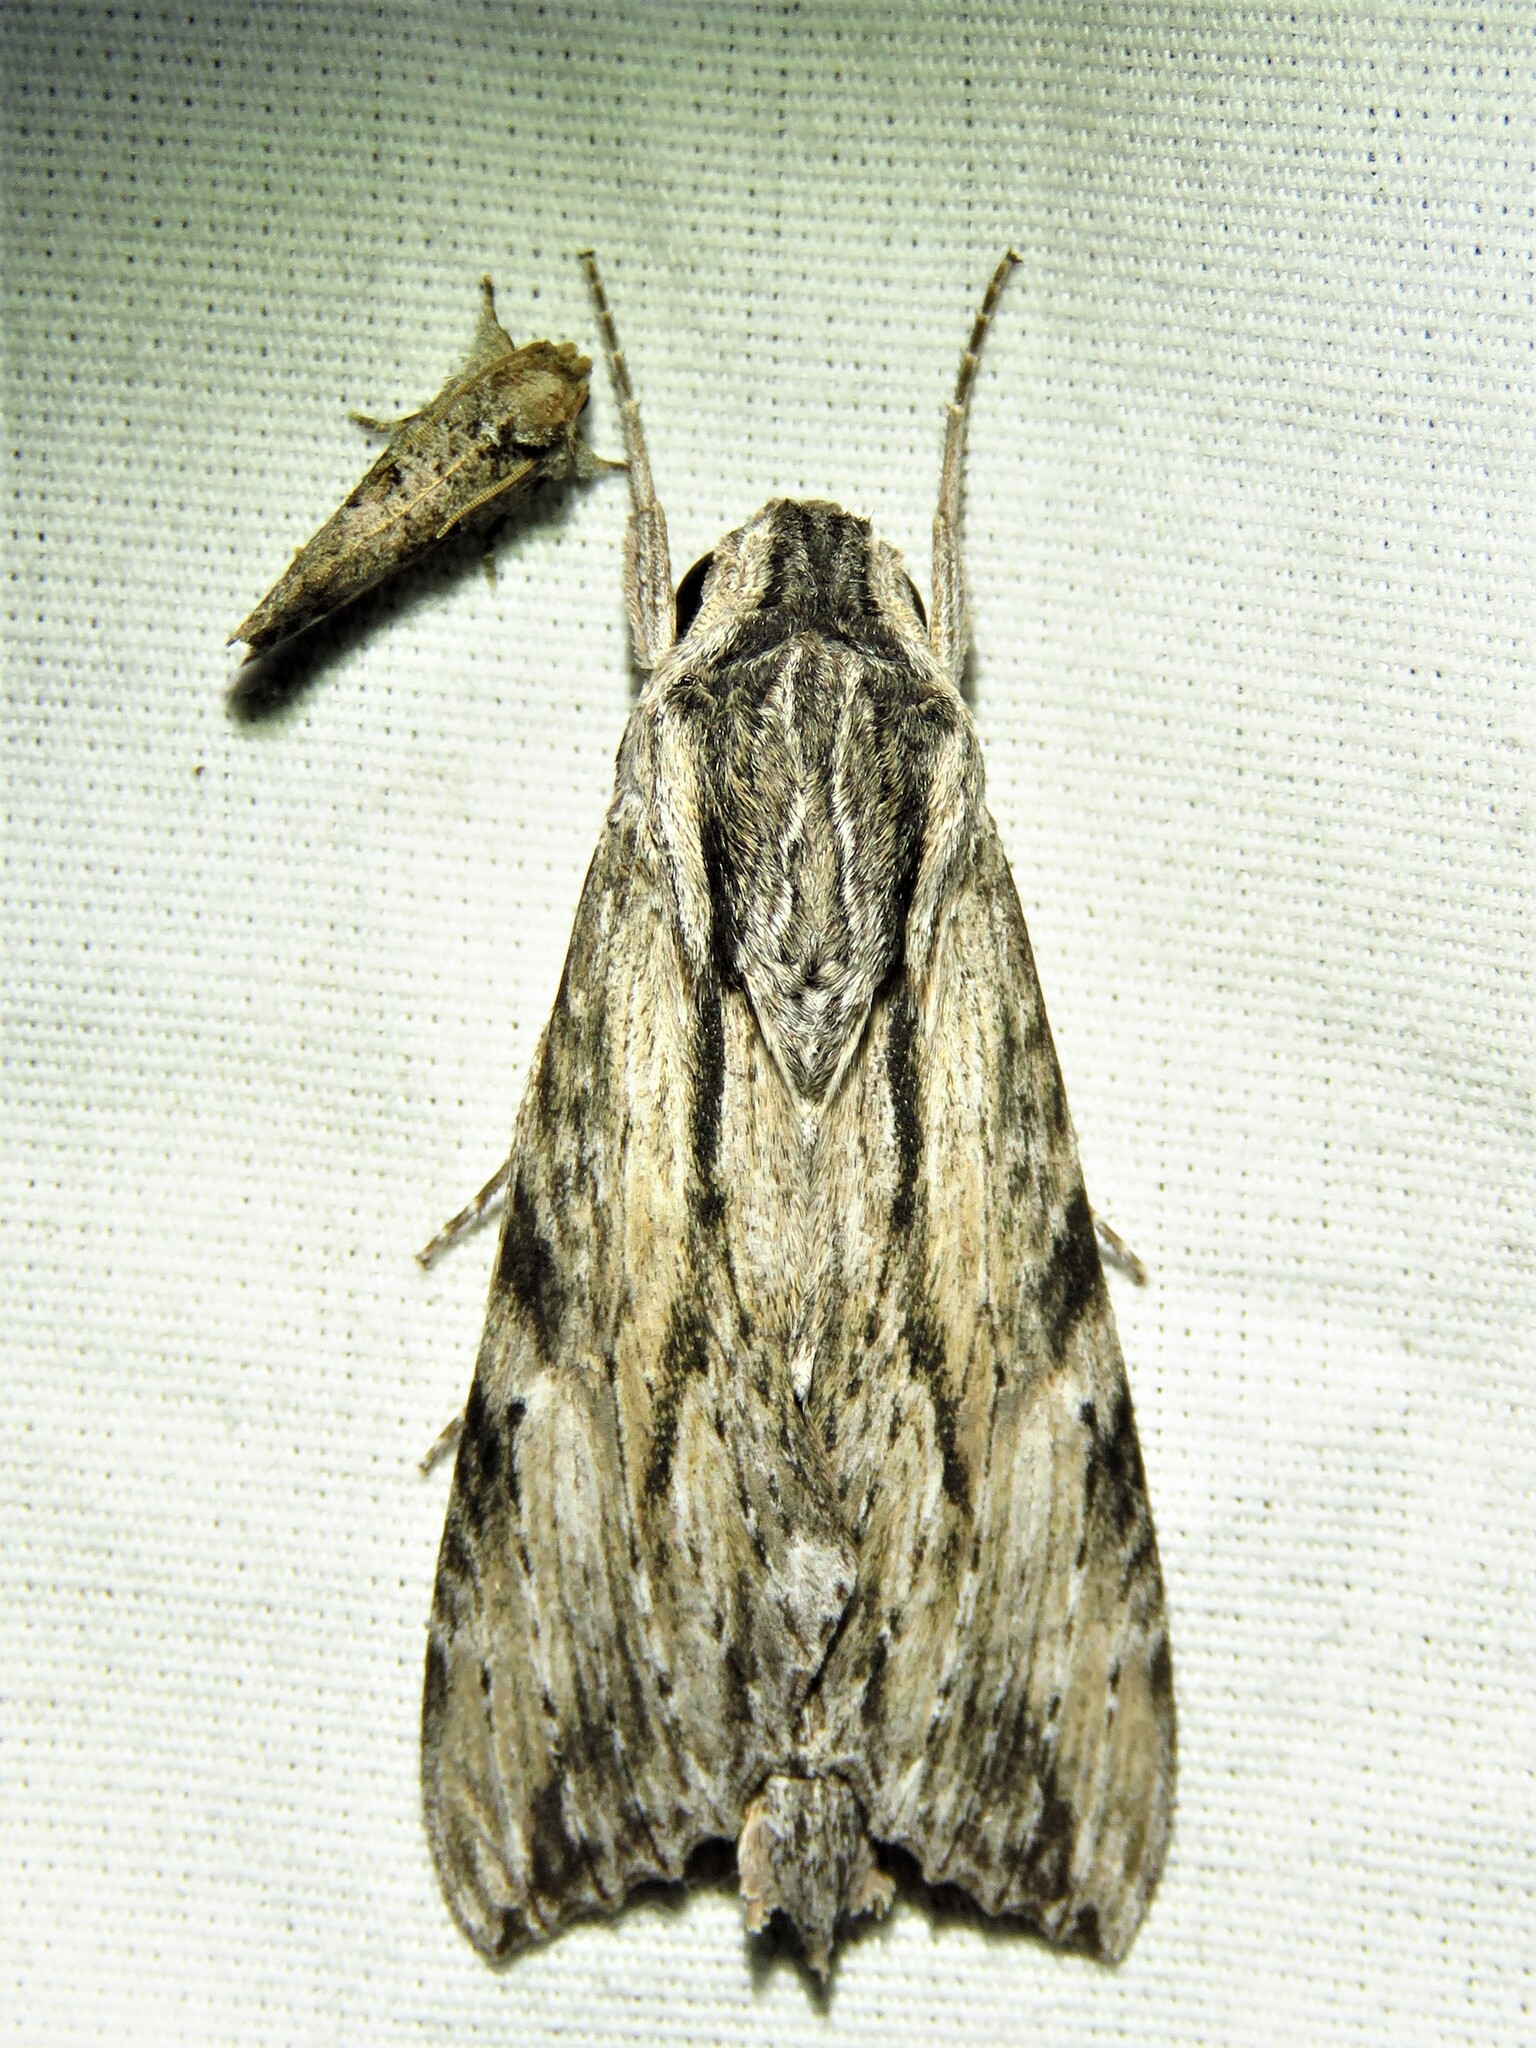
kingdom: Animalia
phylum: Arthropoda
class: Insecta
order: Lepidoptera
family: Sphingidae
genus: Erinnyis
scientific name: Erinnyis obscura
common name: Obscure sphinx
